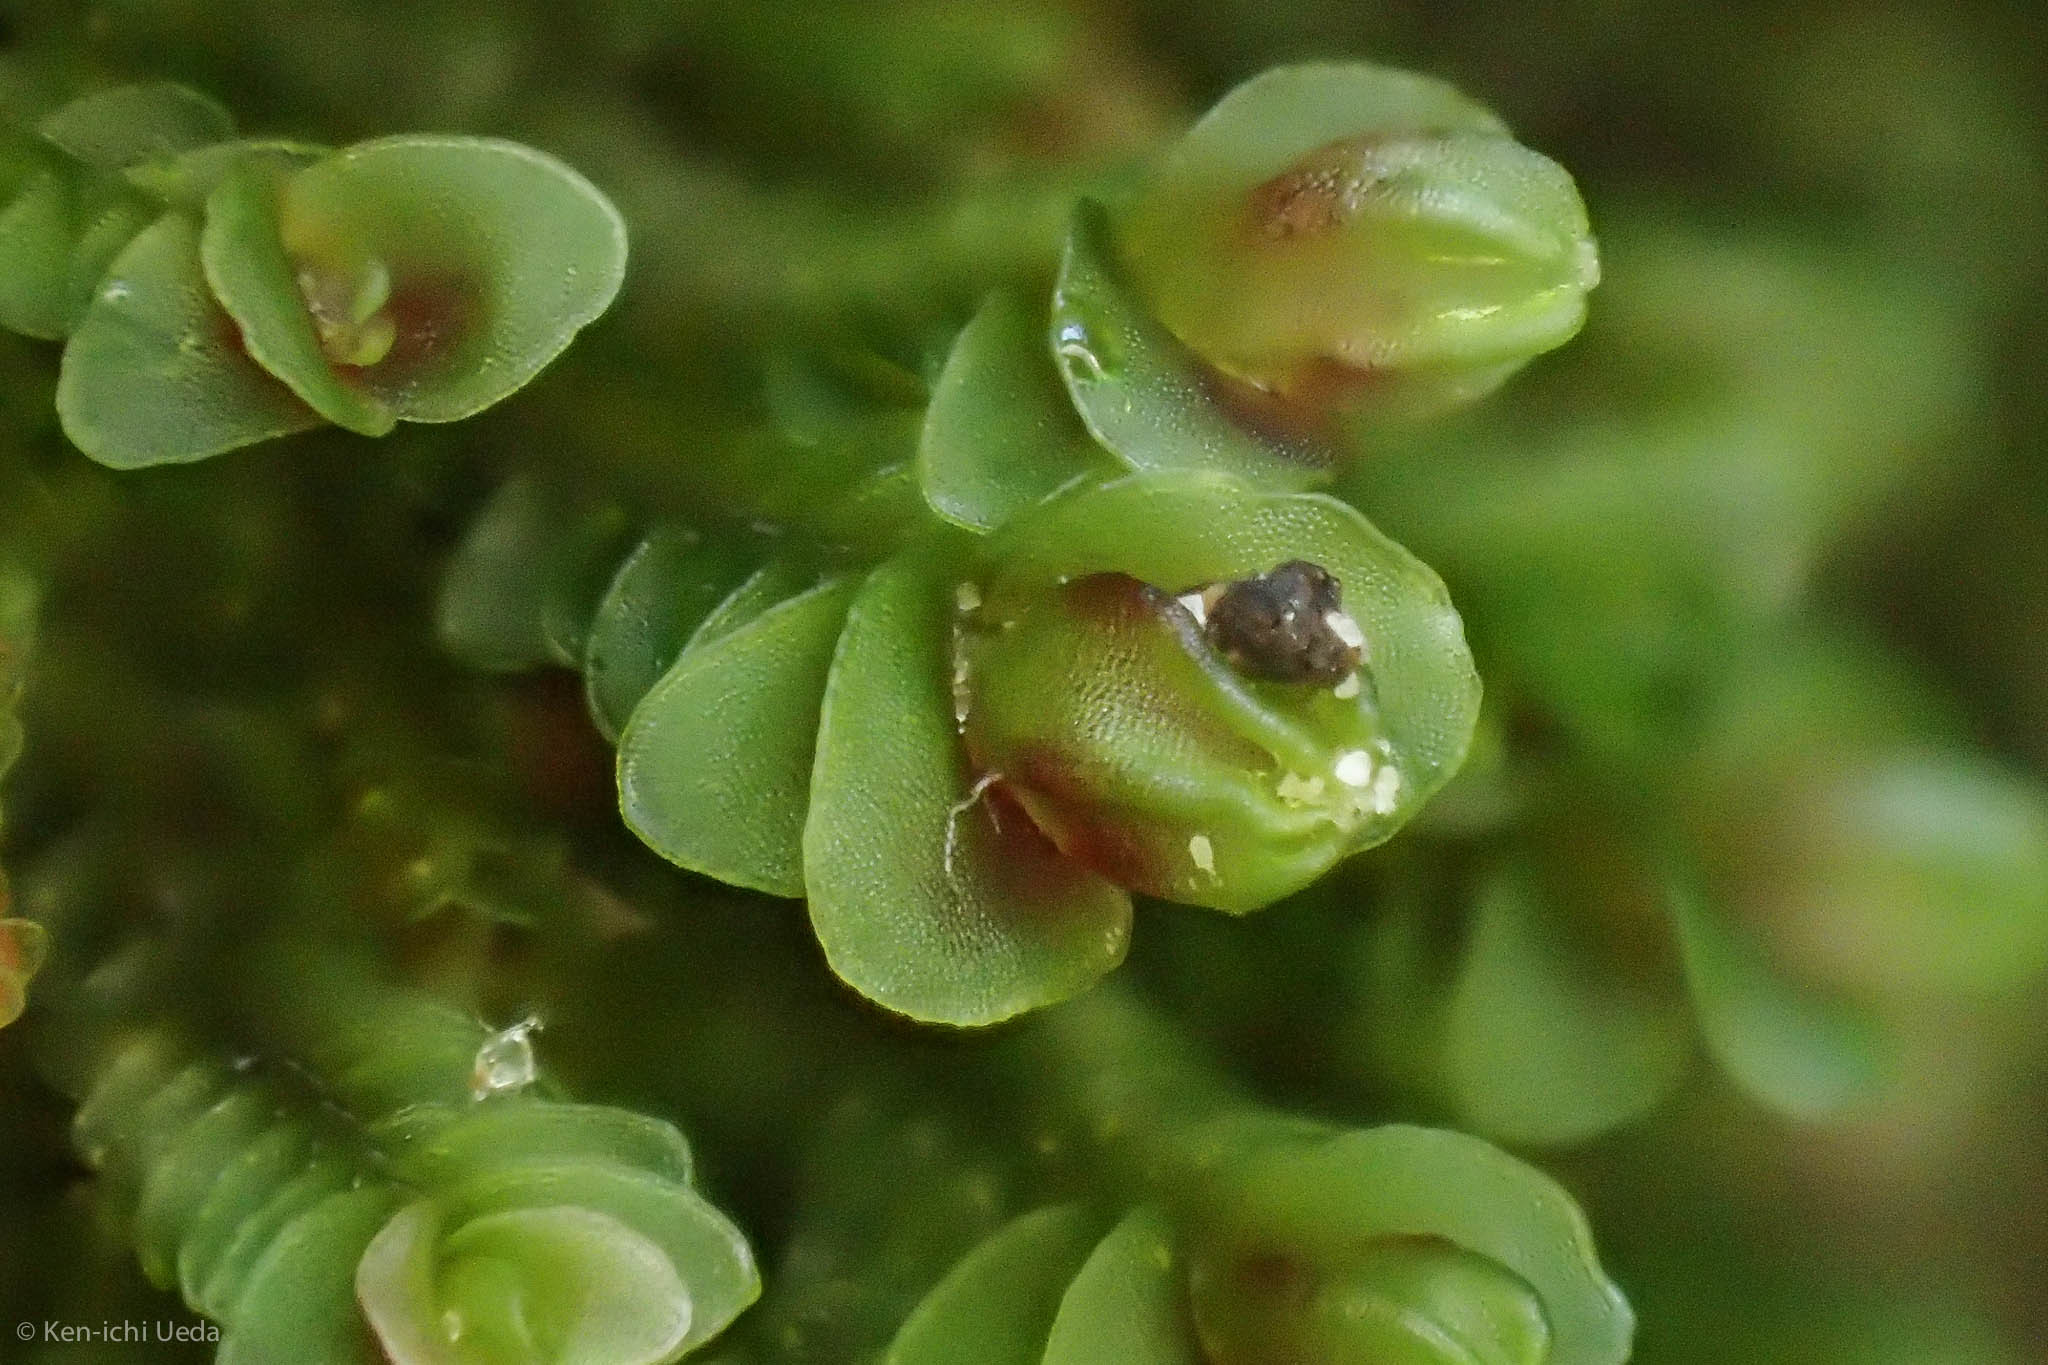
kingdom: Plantae
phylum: Marchantiophyta
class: Jungermanniopsida
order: Jungermanniales
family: Solenostomataceae
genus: Solenostoma
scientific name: Solenostoma rubrum
